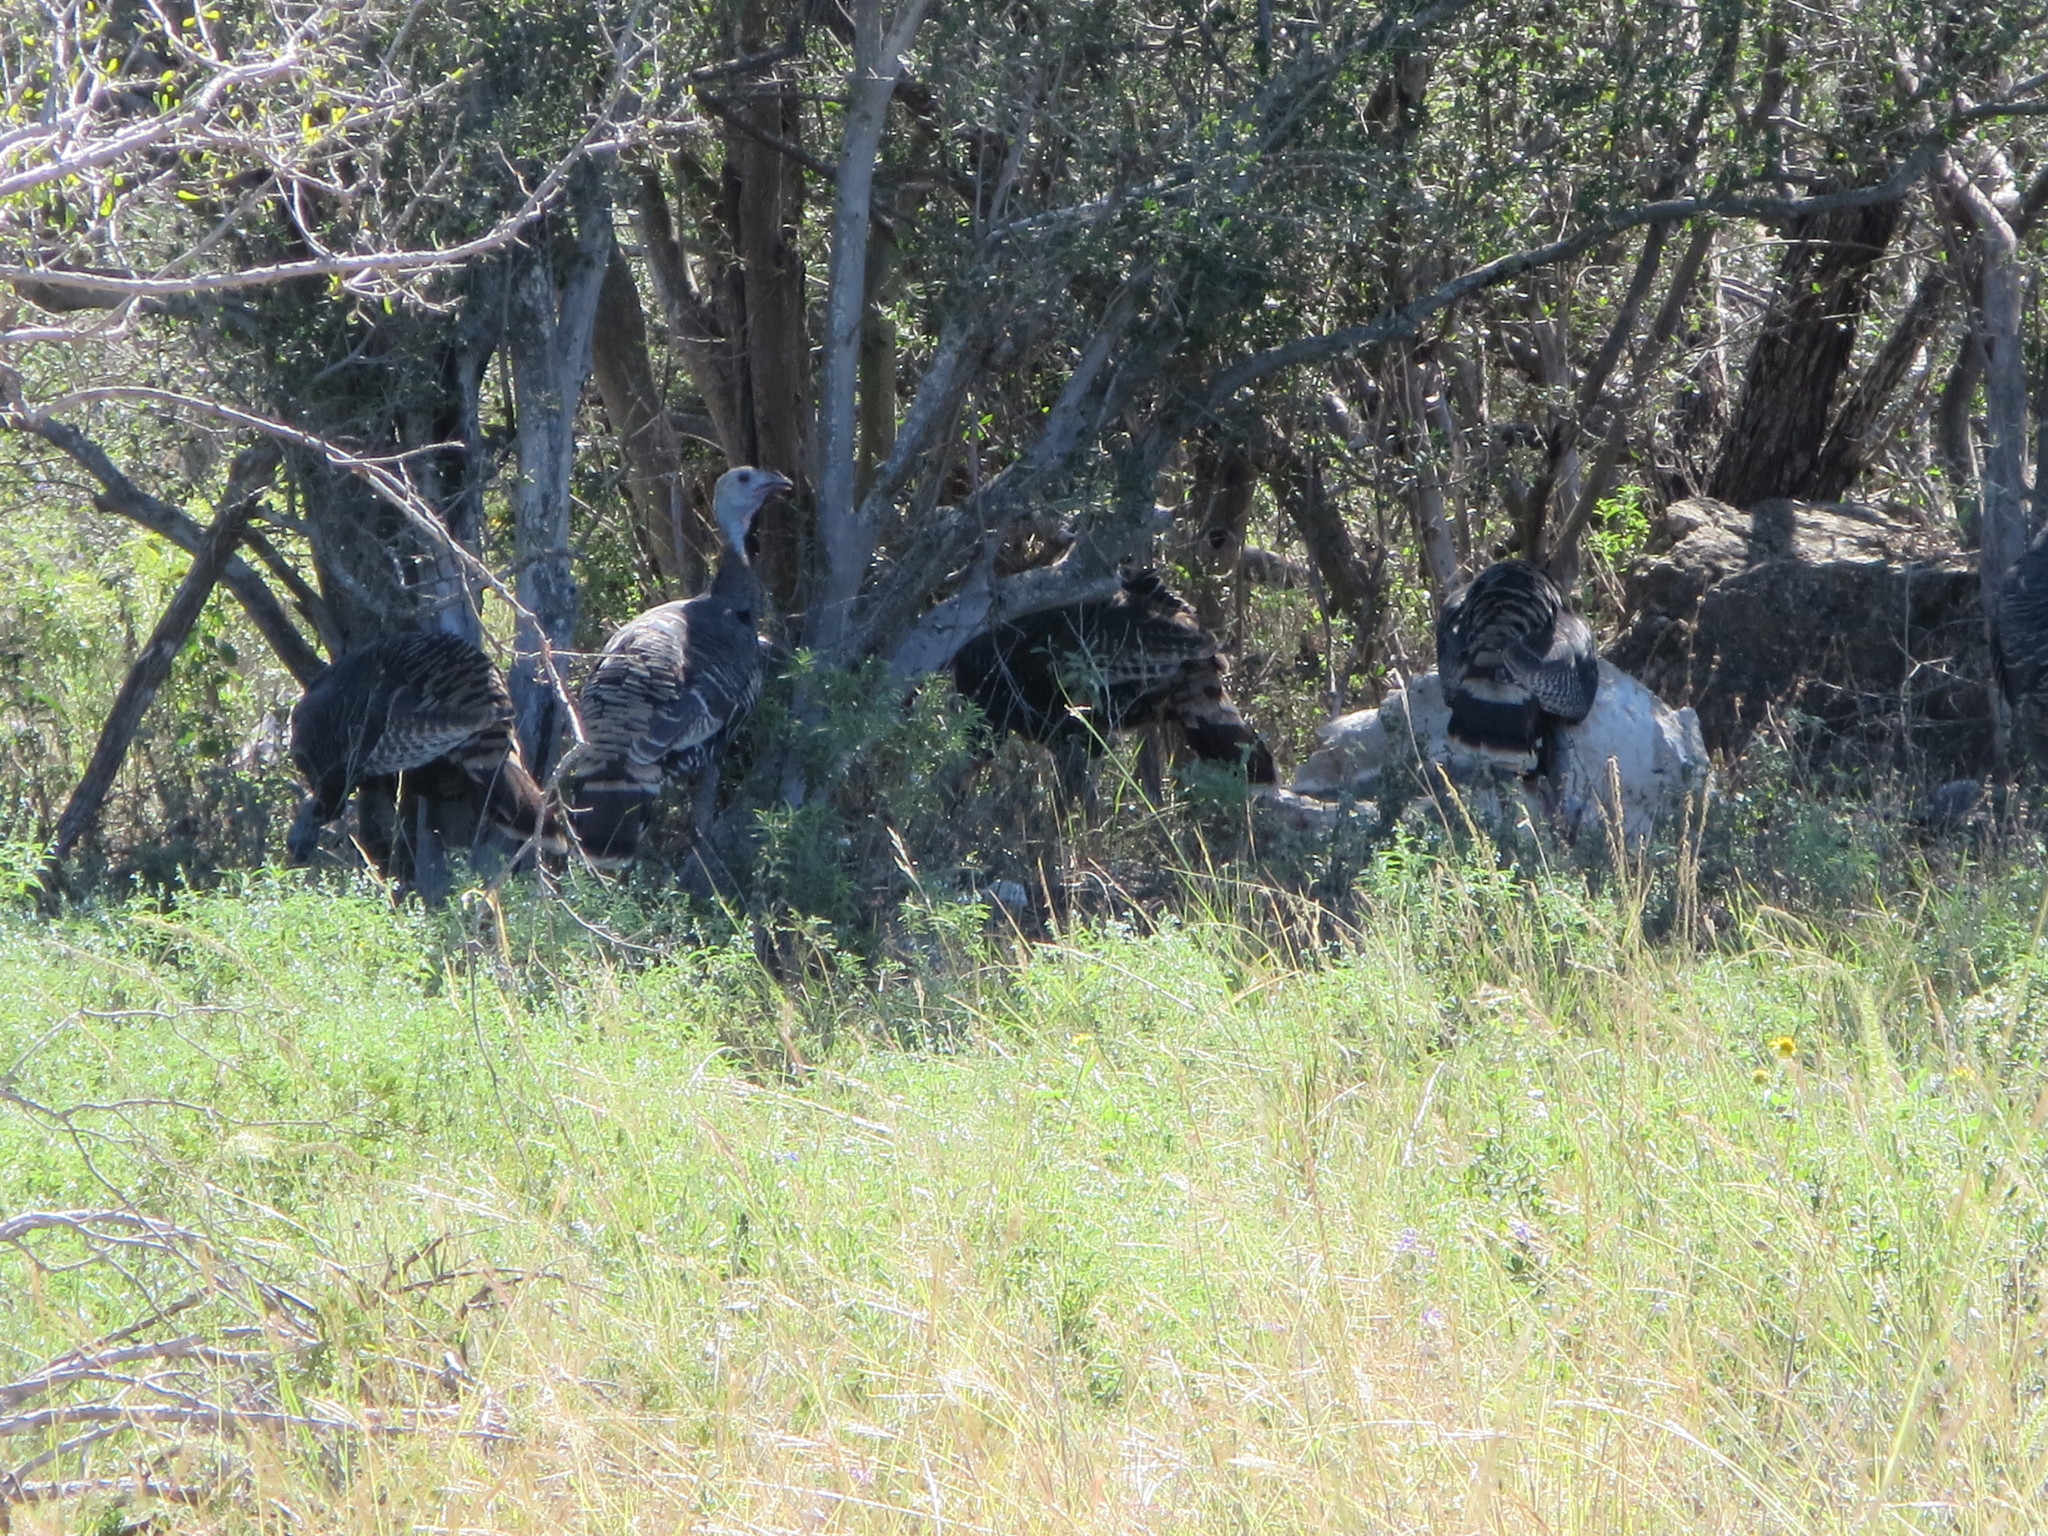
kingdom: Animalia
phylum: Chordata
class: Aves
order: Galliformes
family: Phasianidae
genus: Meleagris
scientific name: Meleagris gallopavo
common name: Wild turkey
